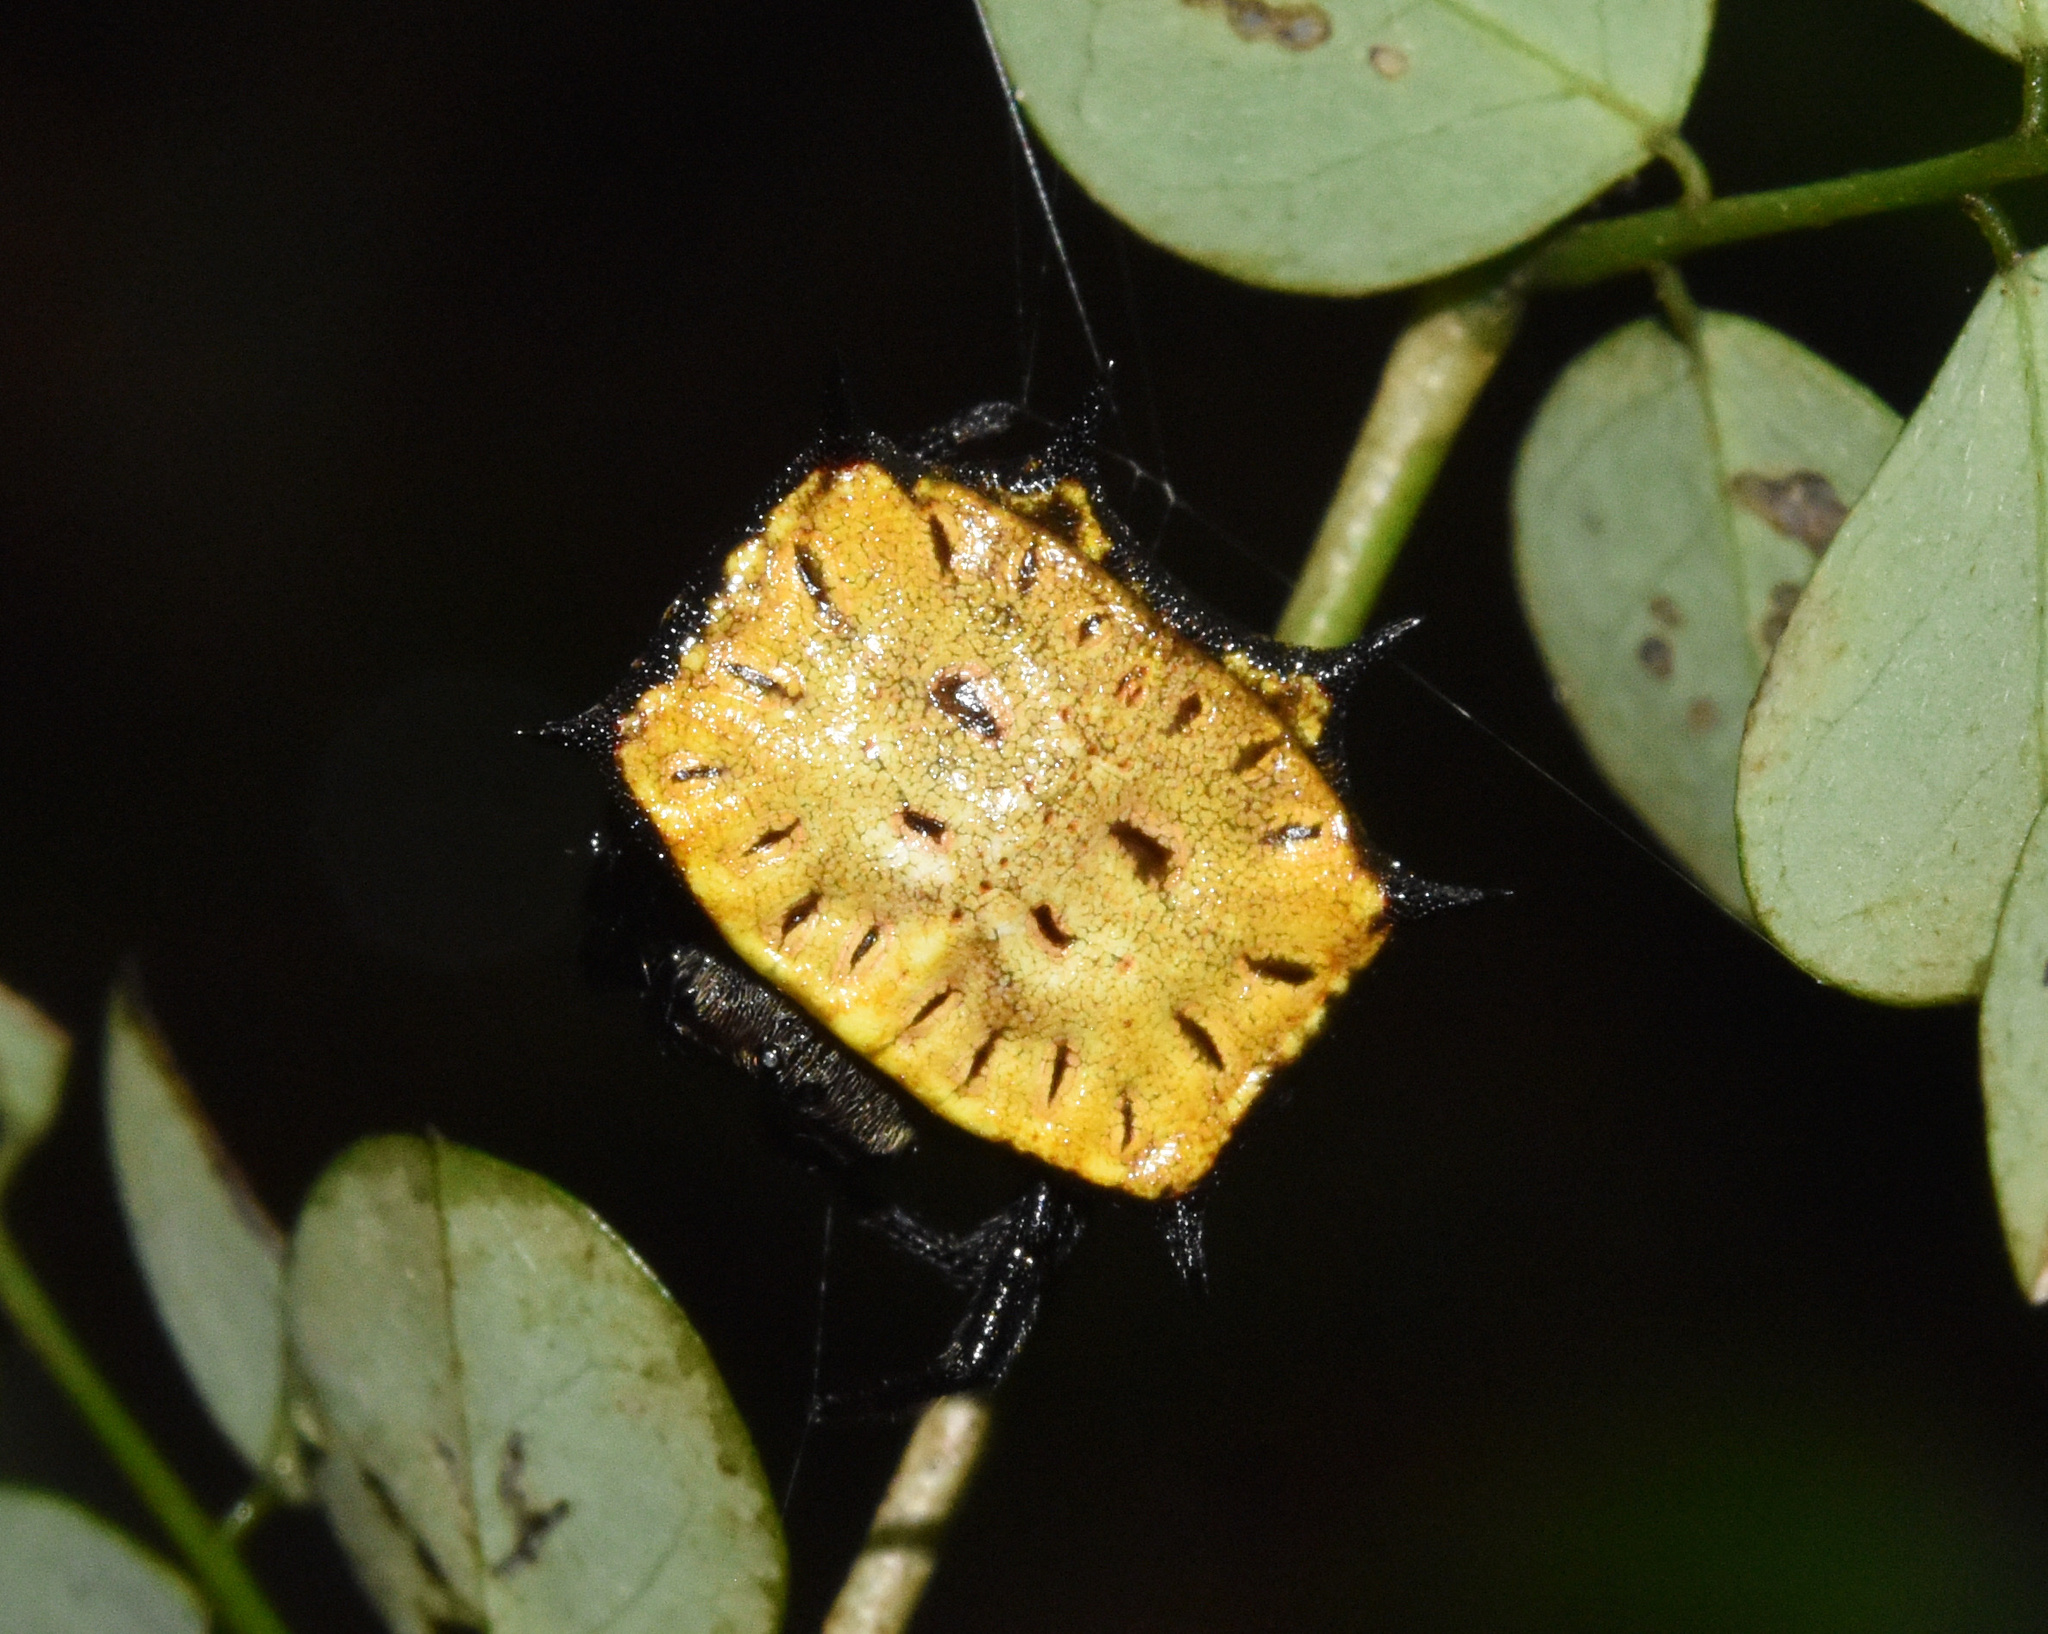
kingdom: Animalia
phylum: Arthropoda
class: Arachnida
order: Araneae
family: Araneidae
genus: Isoxya
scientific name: Isoxya tabulata
